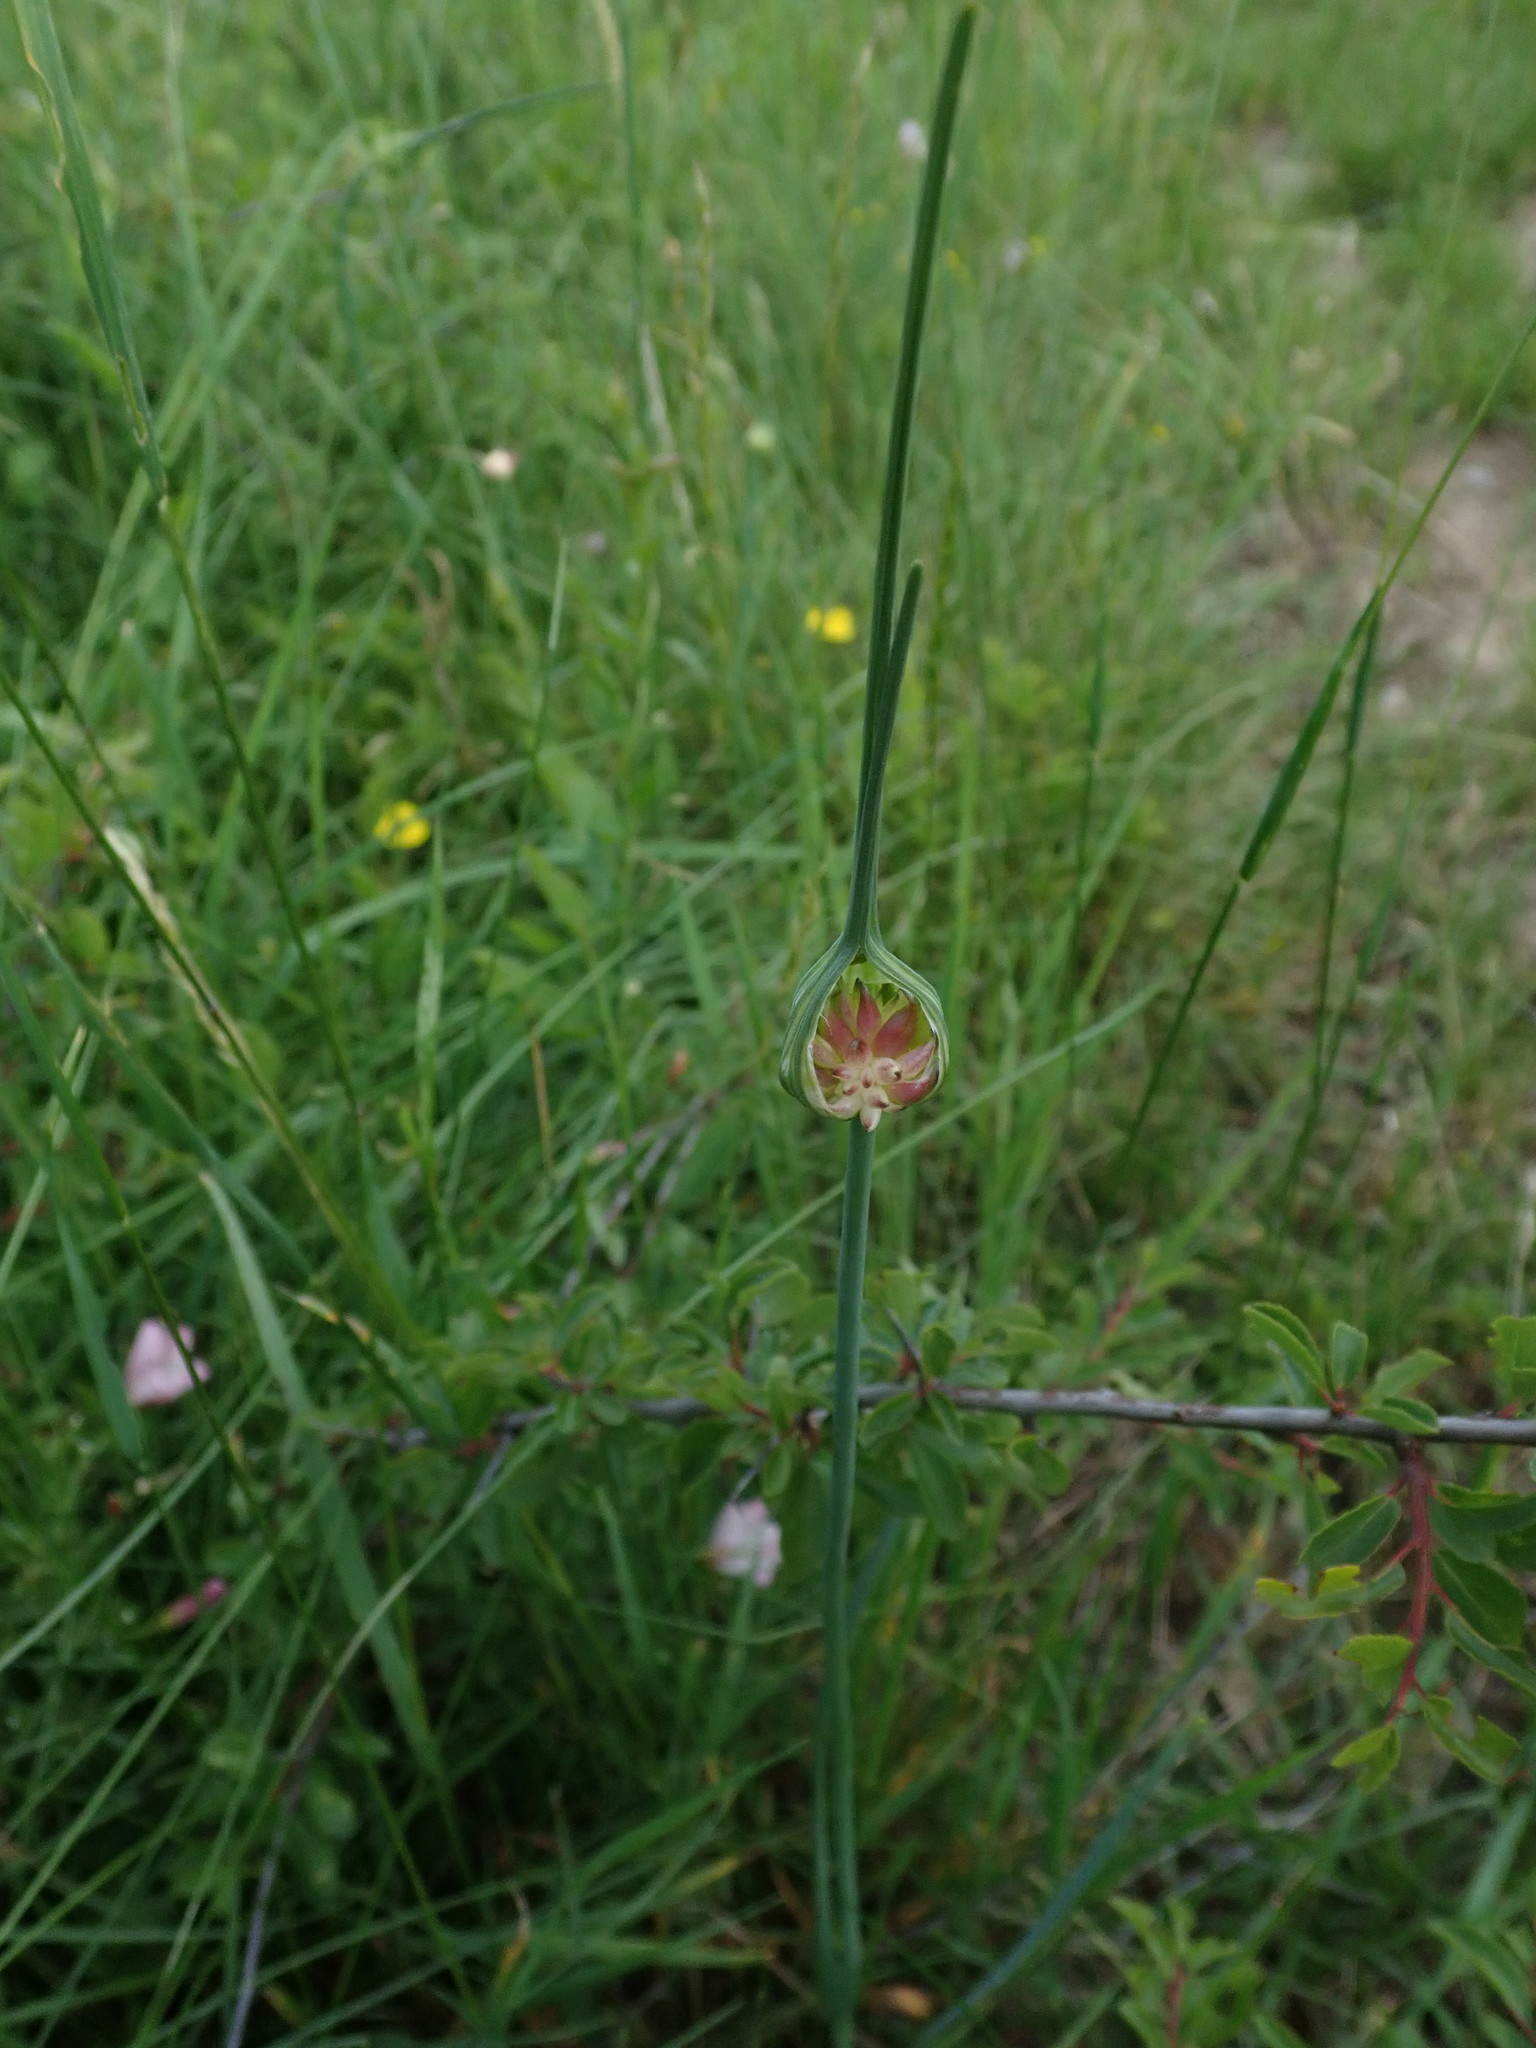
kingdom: Plantae
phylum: Tracheophyta
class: Liliopsida
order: Asparagales
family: Amaryllidaceae
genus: Allium
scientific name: Allium oleraceum
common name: Field garlic
